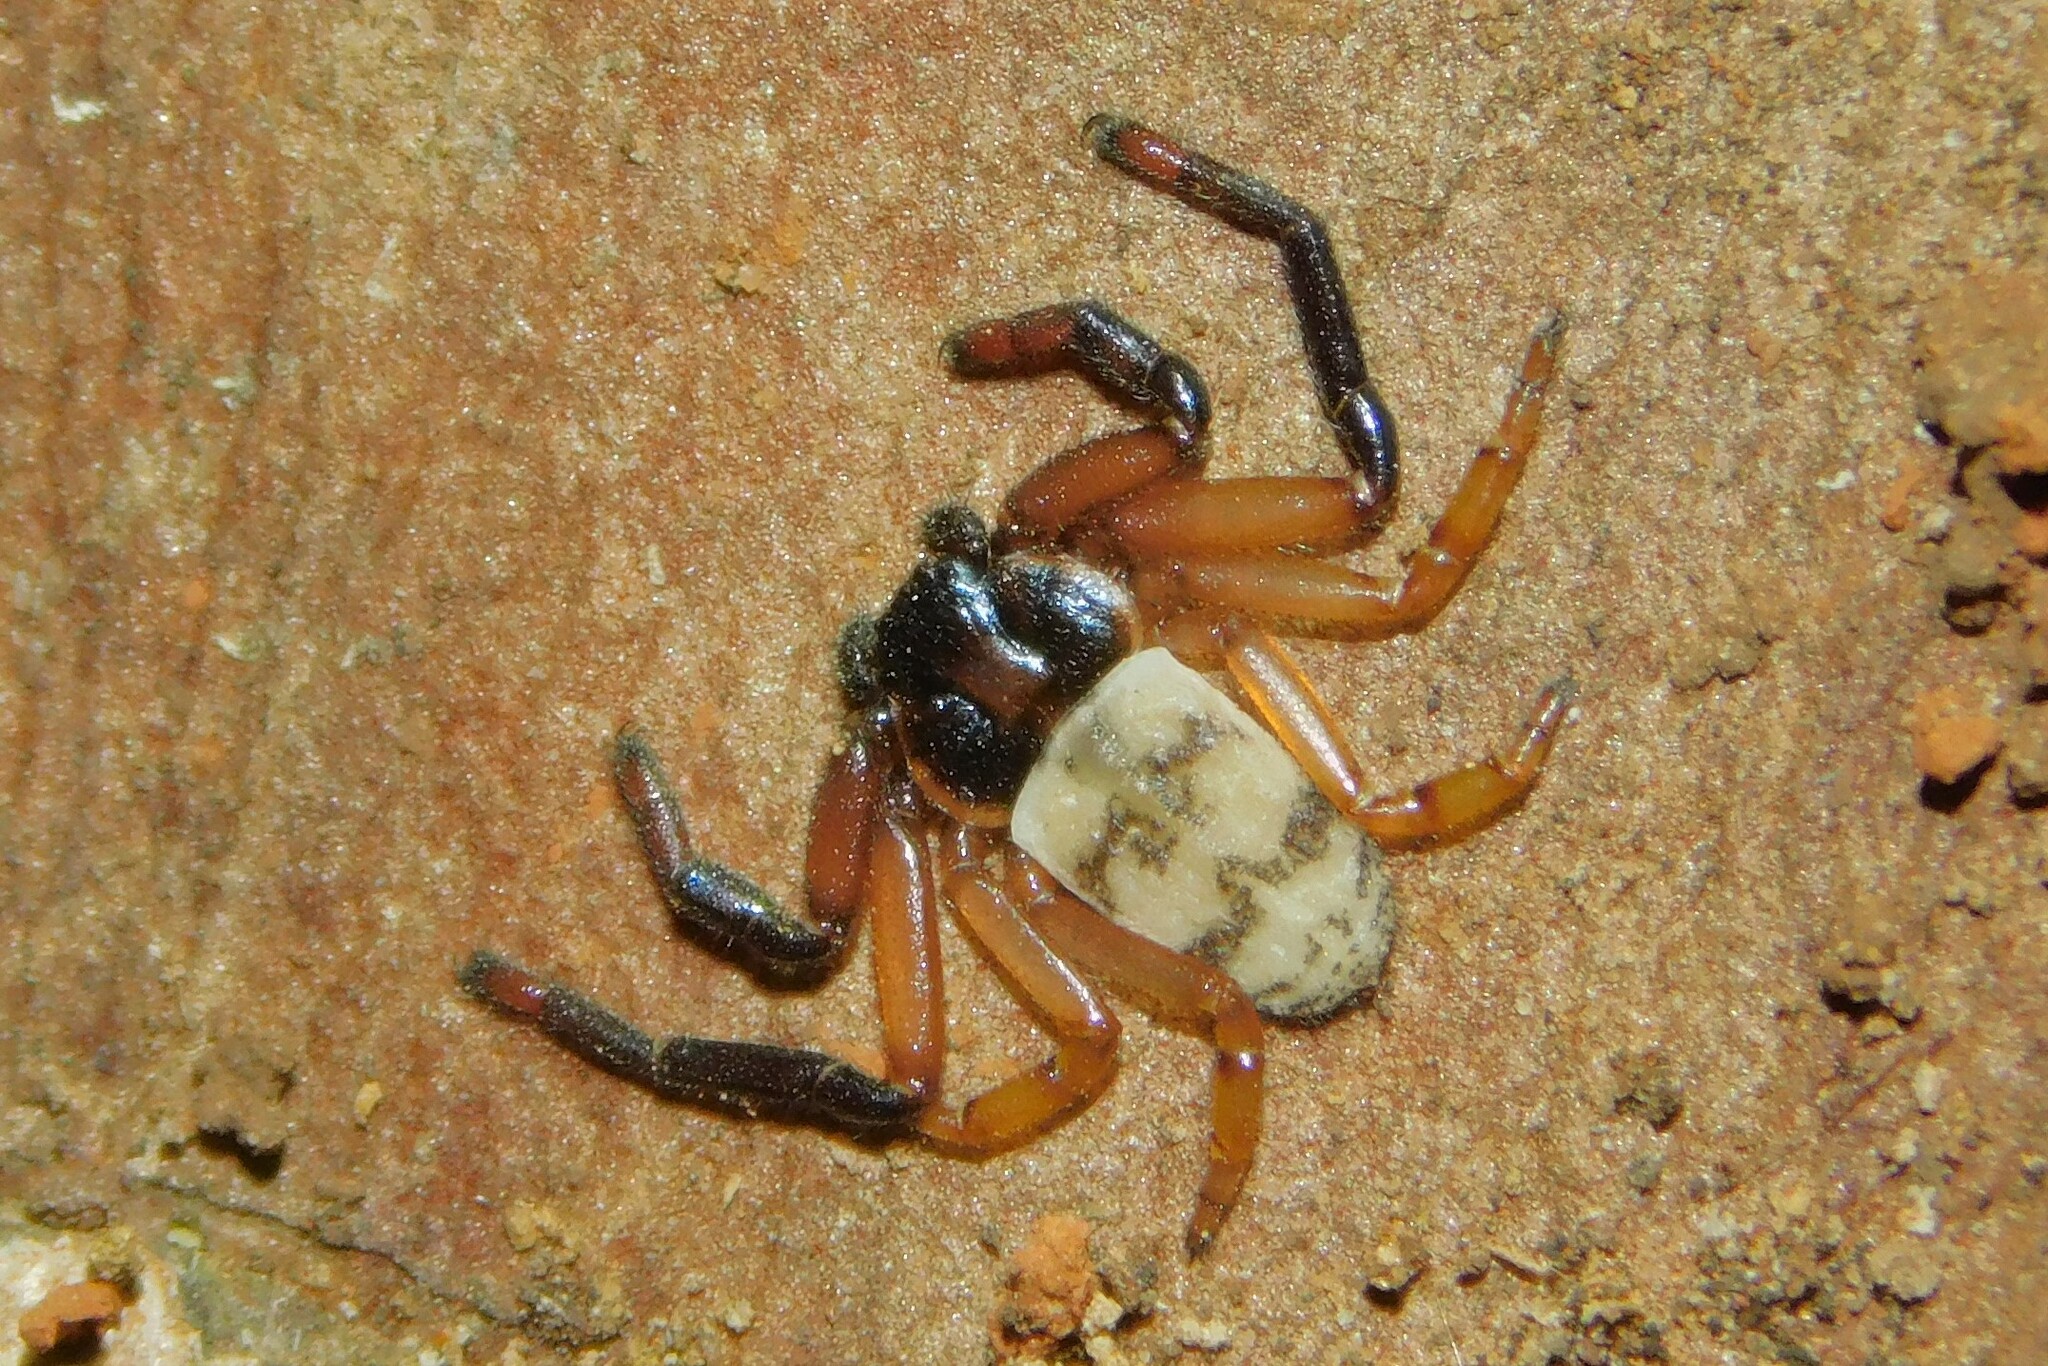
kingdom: Animalia
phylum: Arthropoda
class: Arachnida
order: Araneae
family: Thomisidae
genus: Heterogriffus
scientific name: Heterogriffus berlandi
